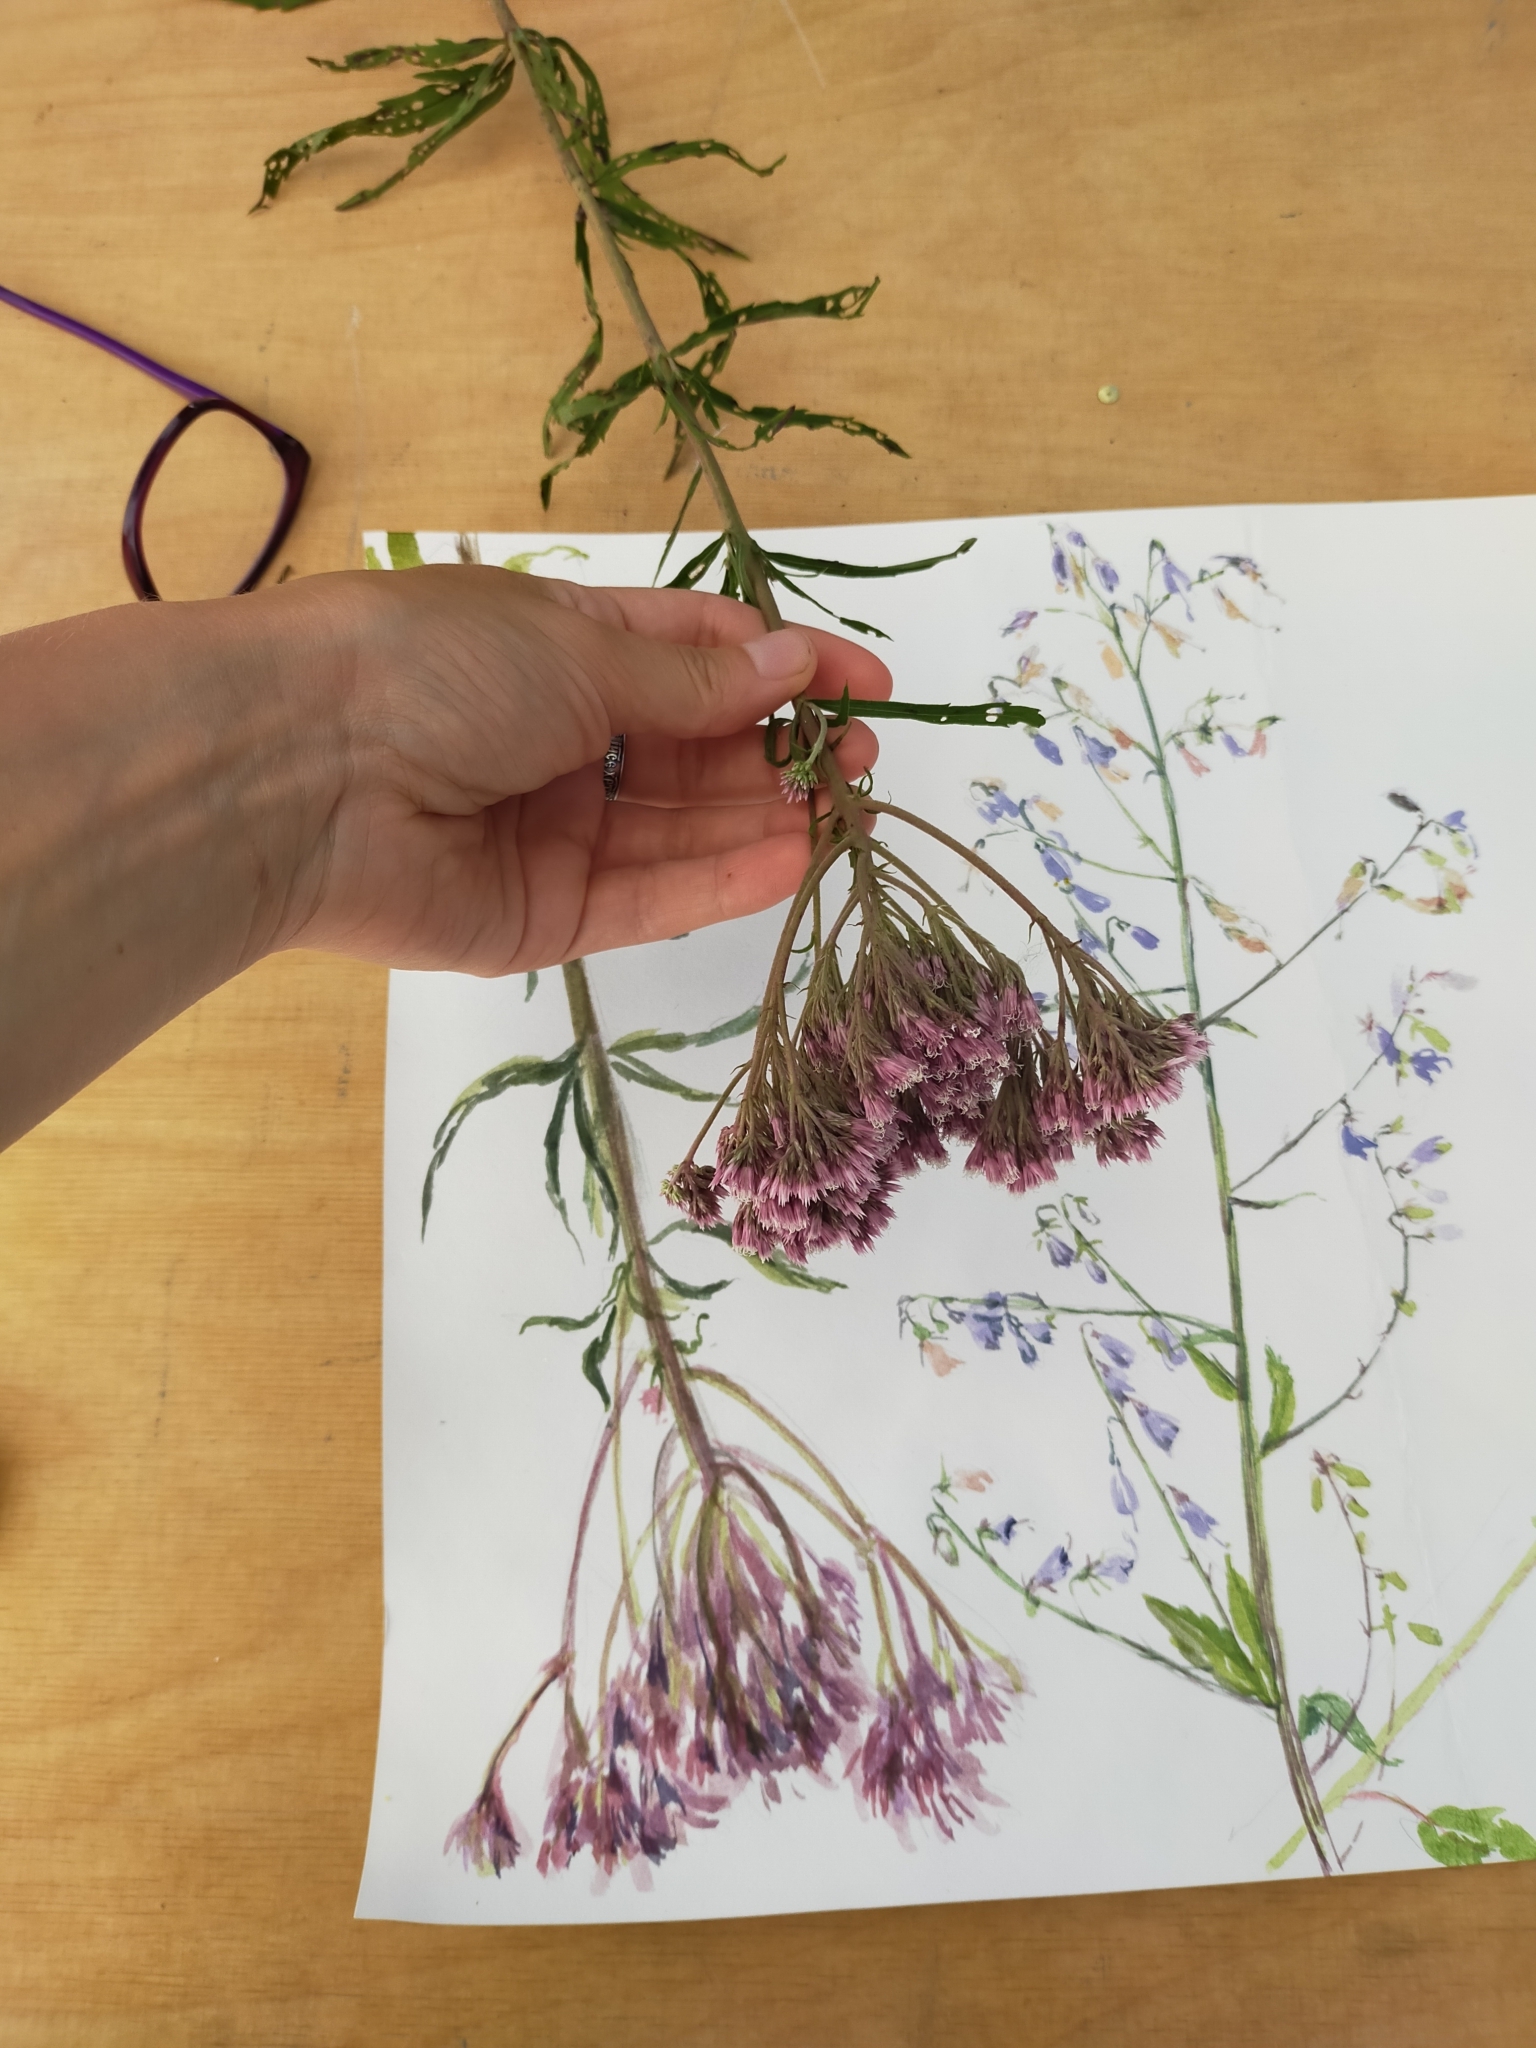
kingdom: Plantae
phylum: Tracheophyta
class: Magnoliopsida
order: Asterales
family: Asteraceae
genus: Eupatorium
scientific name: Eupatorium lindleyanum
